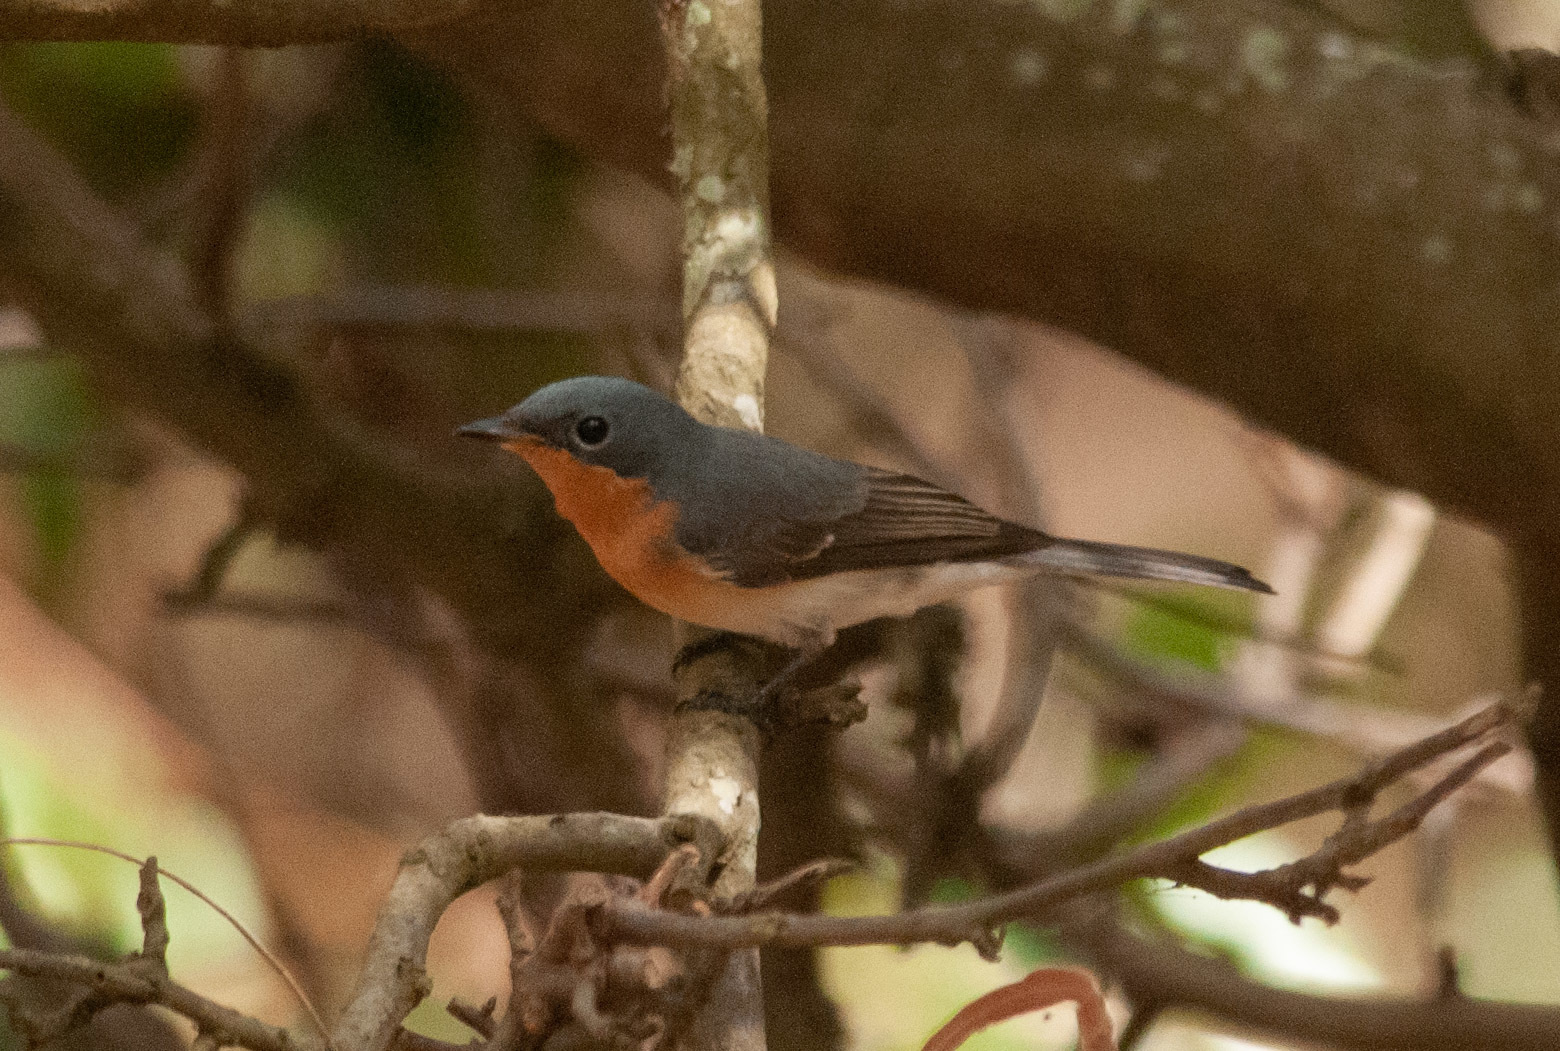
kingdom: Animalia
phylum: Chordata
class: Aves
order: Passeriformes
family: Monarchidae
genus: Myiagra
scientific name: Myiagra rubecula
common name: Leaden flycatcher
